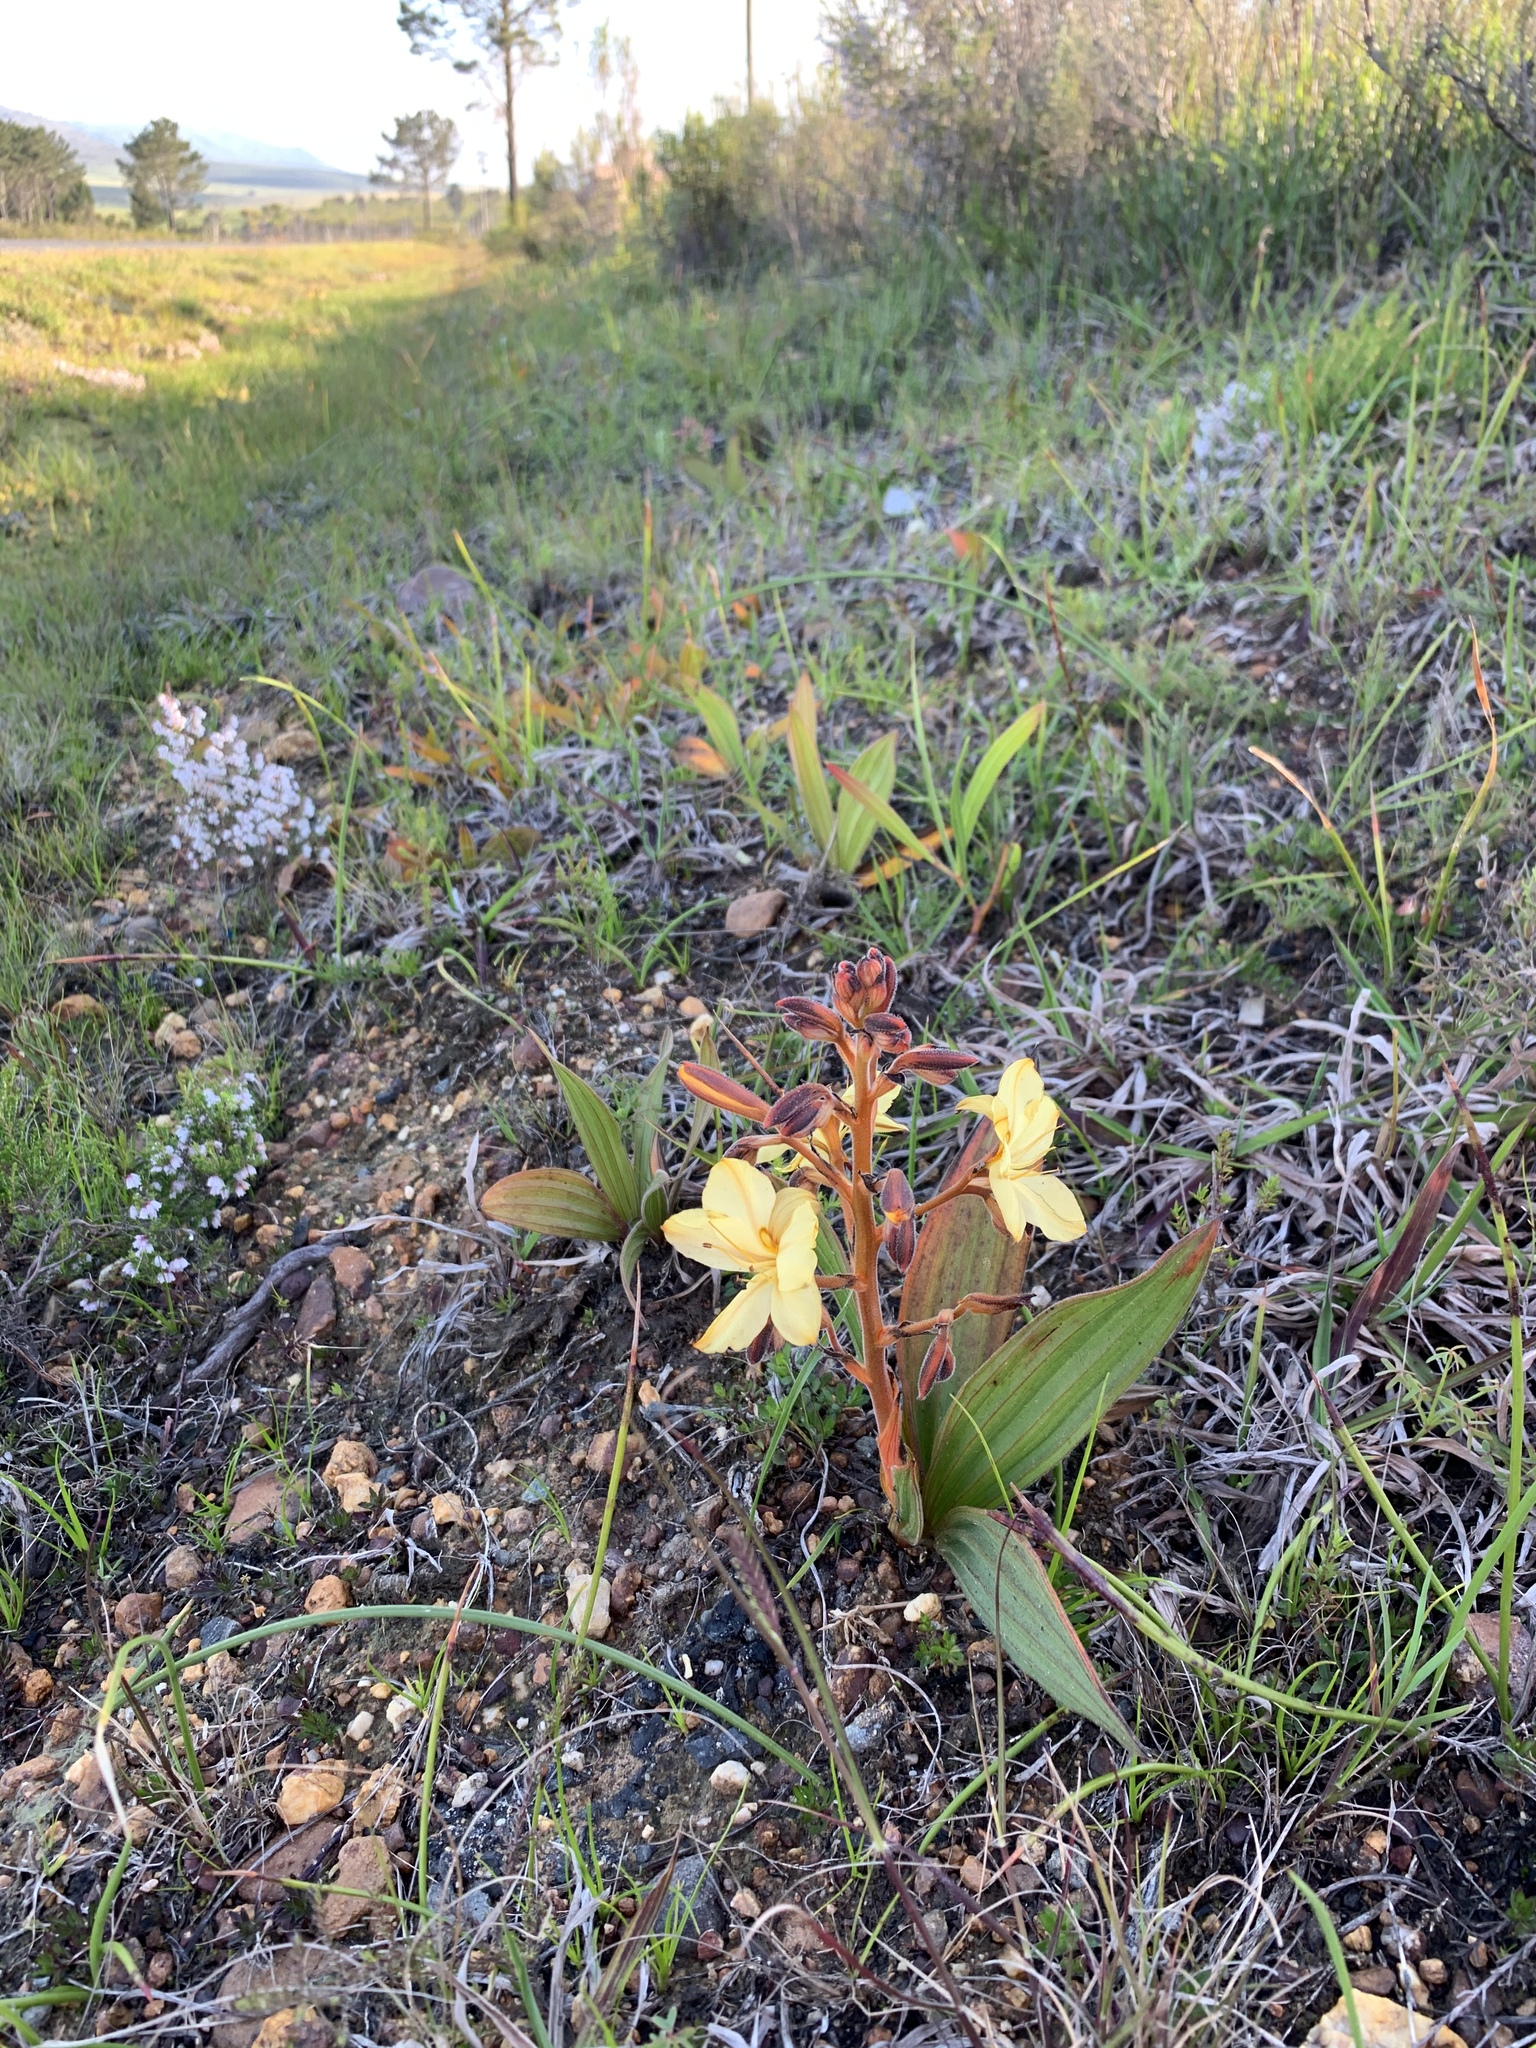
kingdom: Plantae
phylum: Tracheophyta
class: Liliopsida
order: Commelinales
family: Haemodoraceae
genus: Wachendorfia
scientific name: Wachendorfia paniculata
